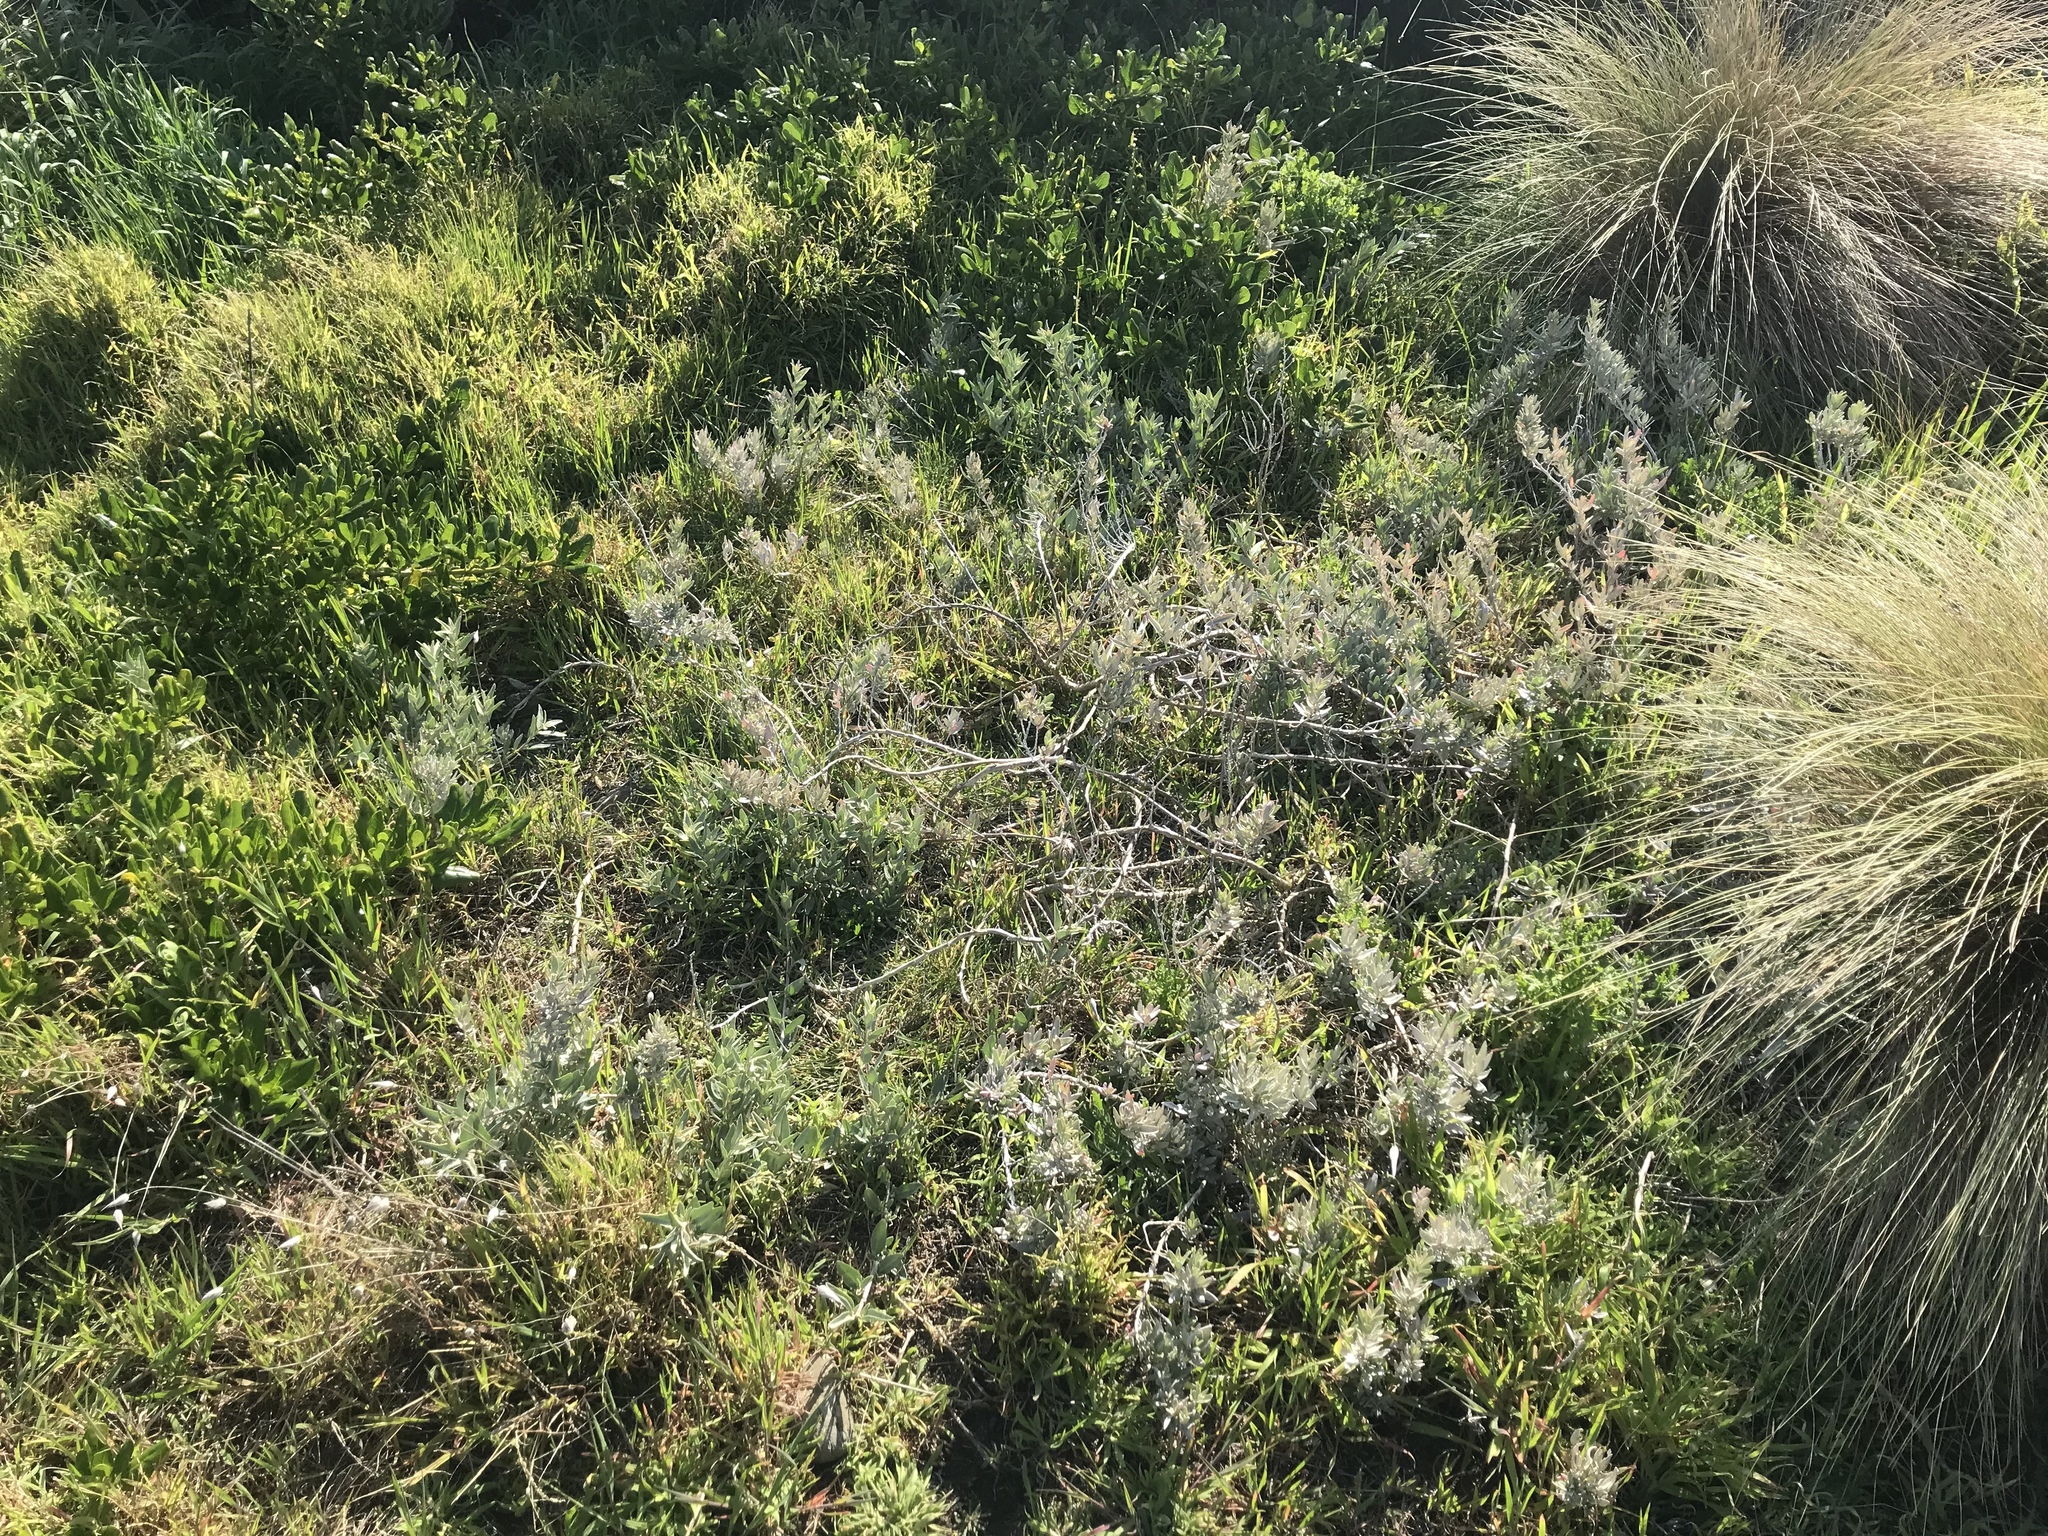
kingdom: Plantae
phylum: Tracheophyta
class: Magnoliopsida
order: Caryophyllales
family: Amaranthaceae
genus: Atriplex
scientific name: Atriplex cinerea
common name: Grey saltbush
